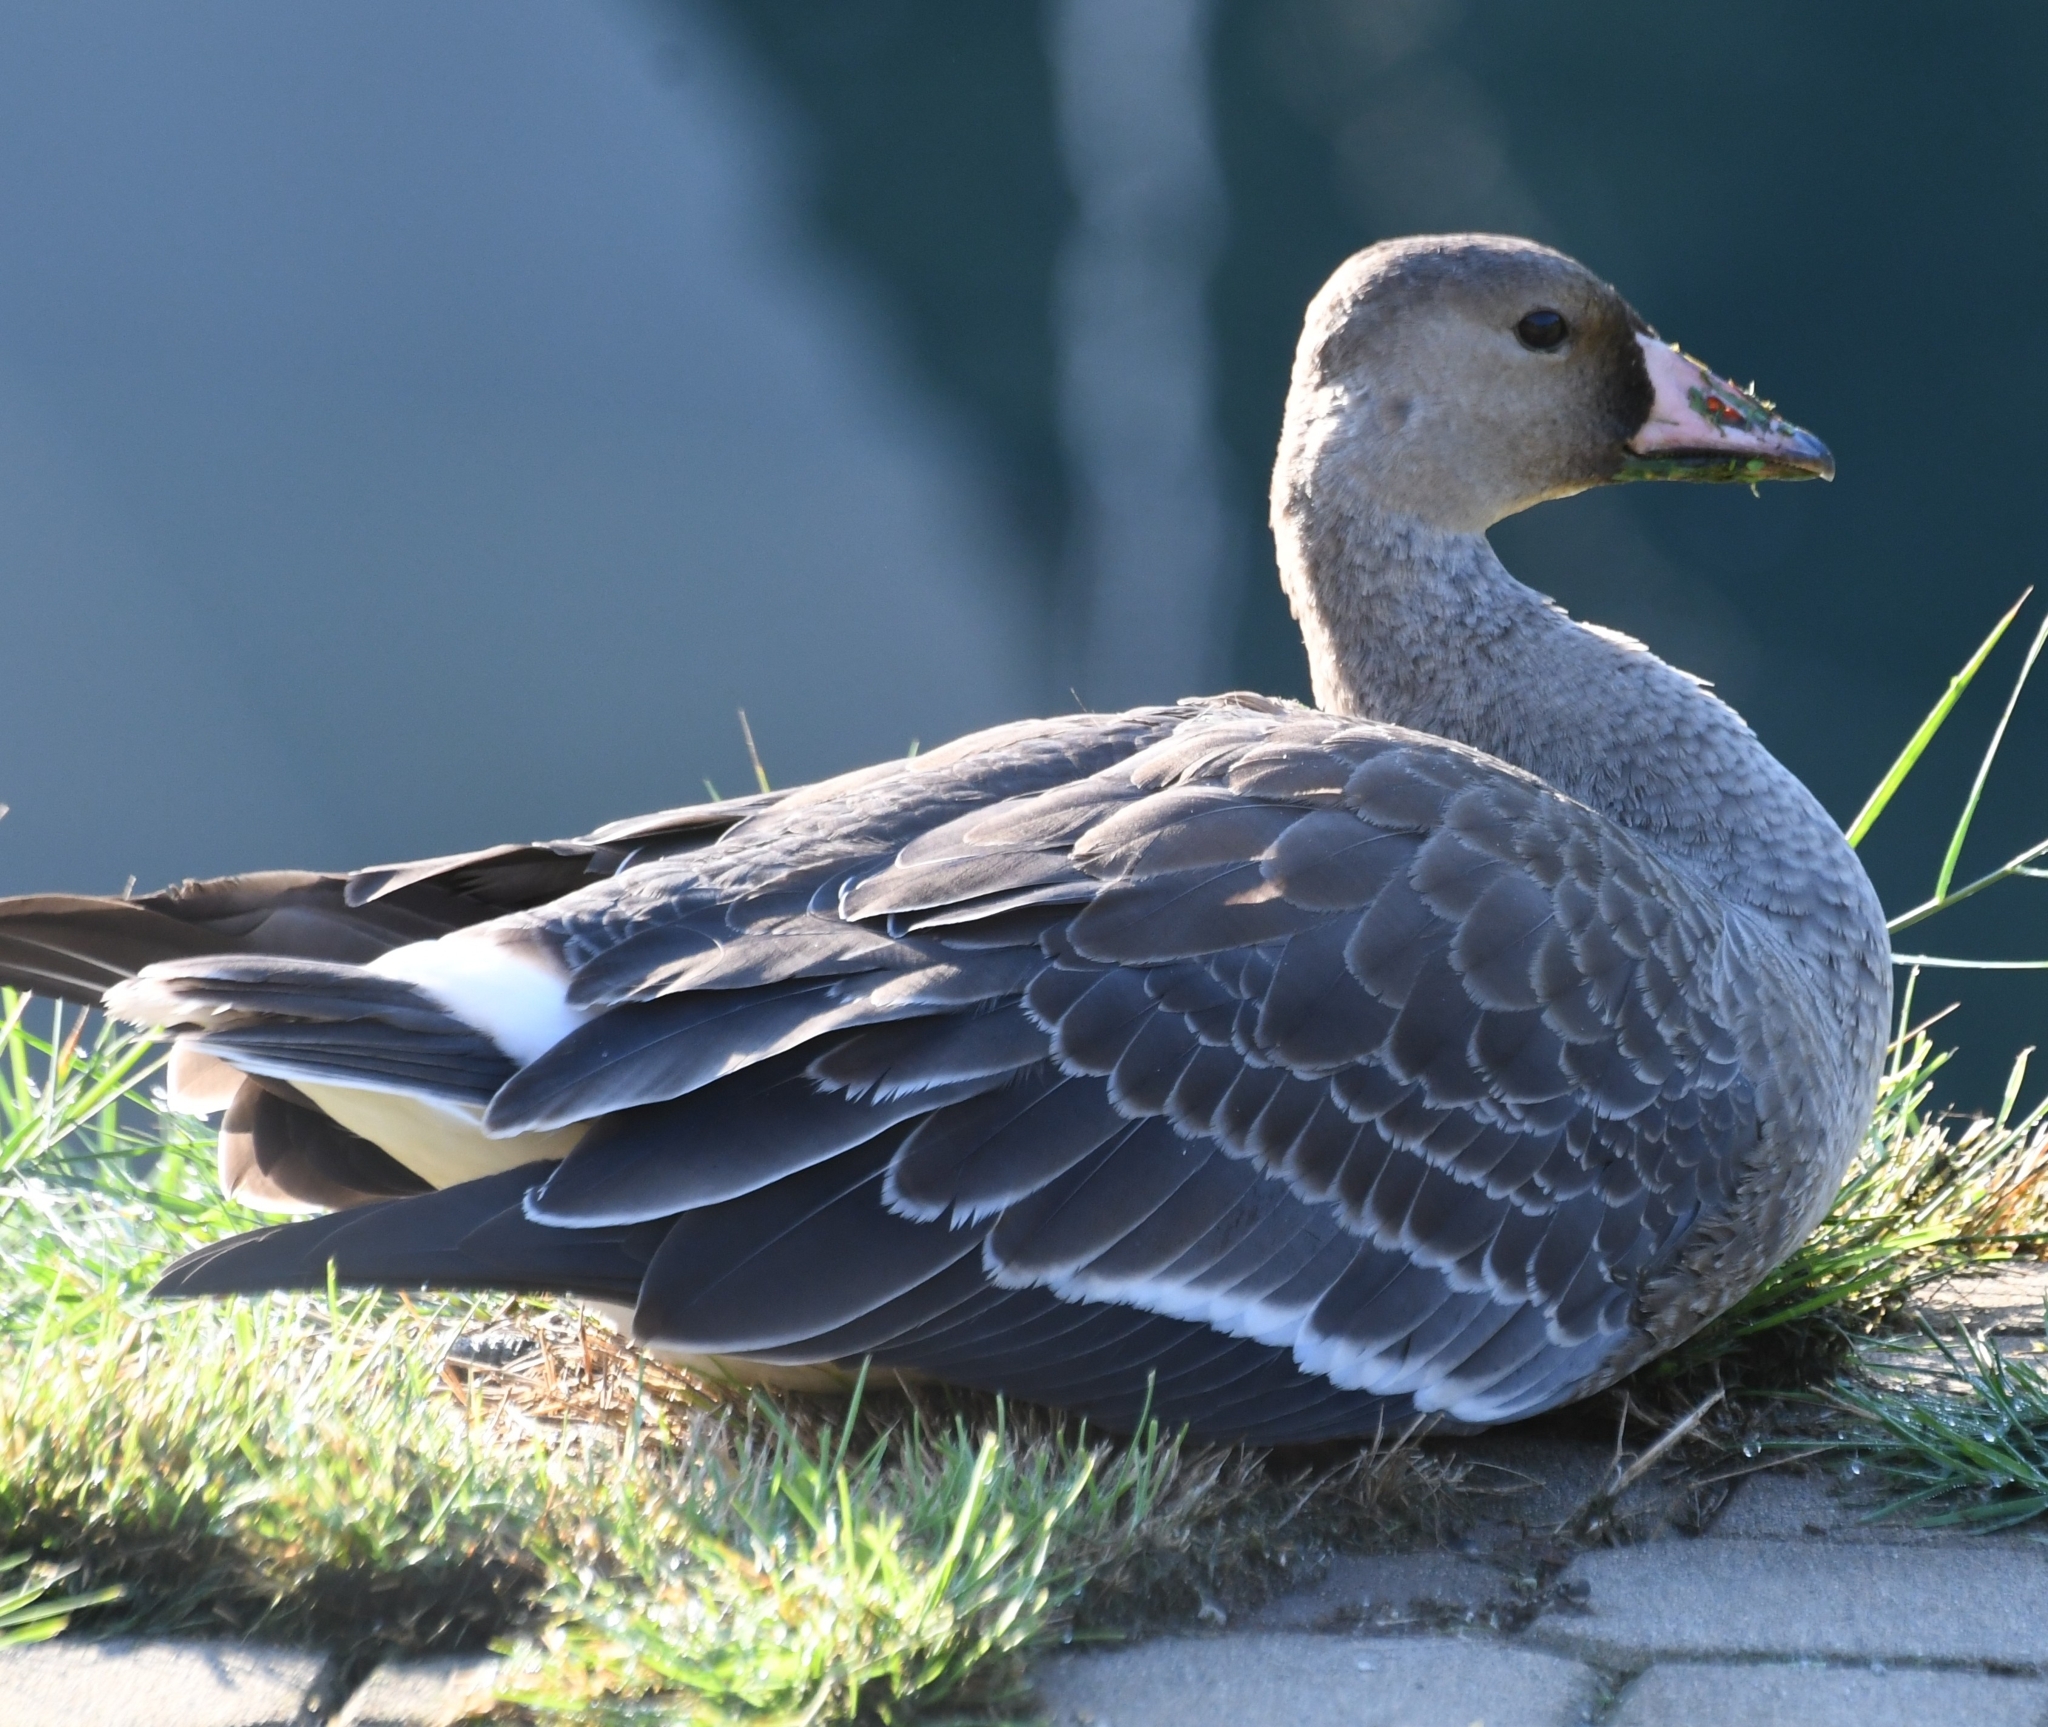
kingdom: Animalia
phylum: Chordata
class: Aves
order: Anseriformes
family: Anatidae
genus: Anser
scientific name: Anser albifrons
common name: Greater white-fronted goose
